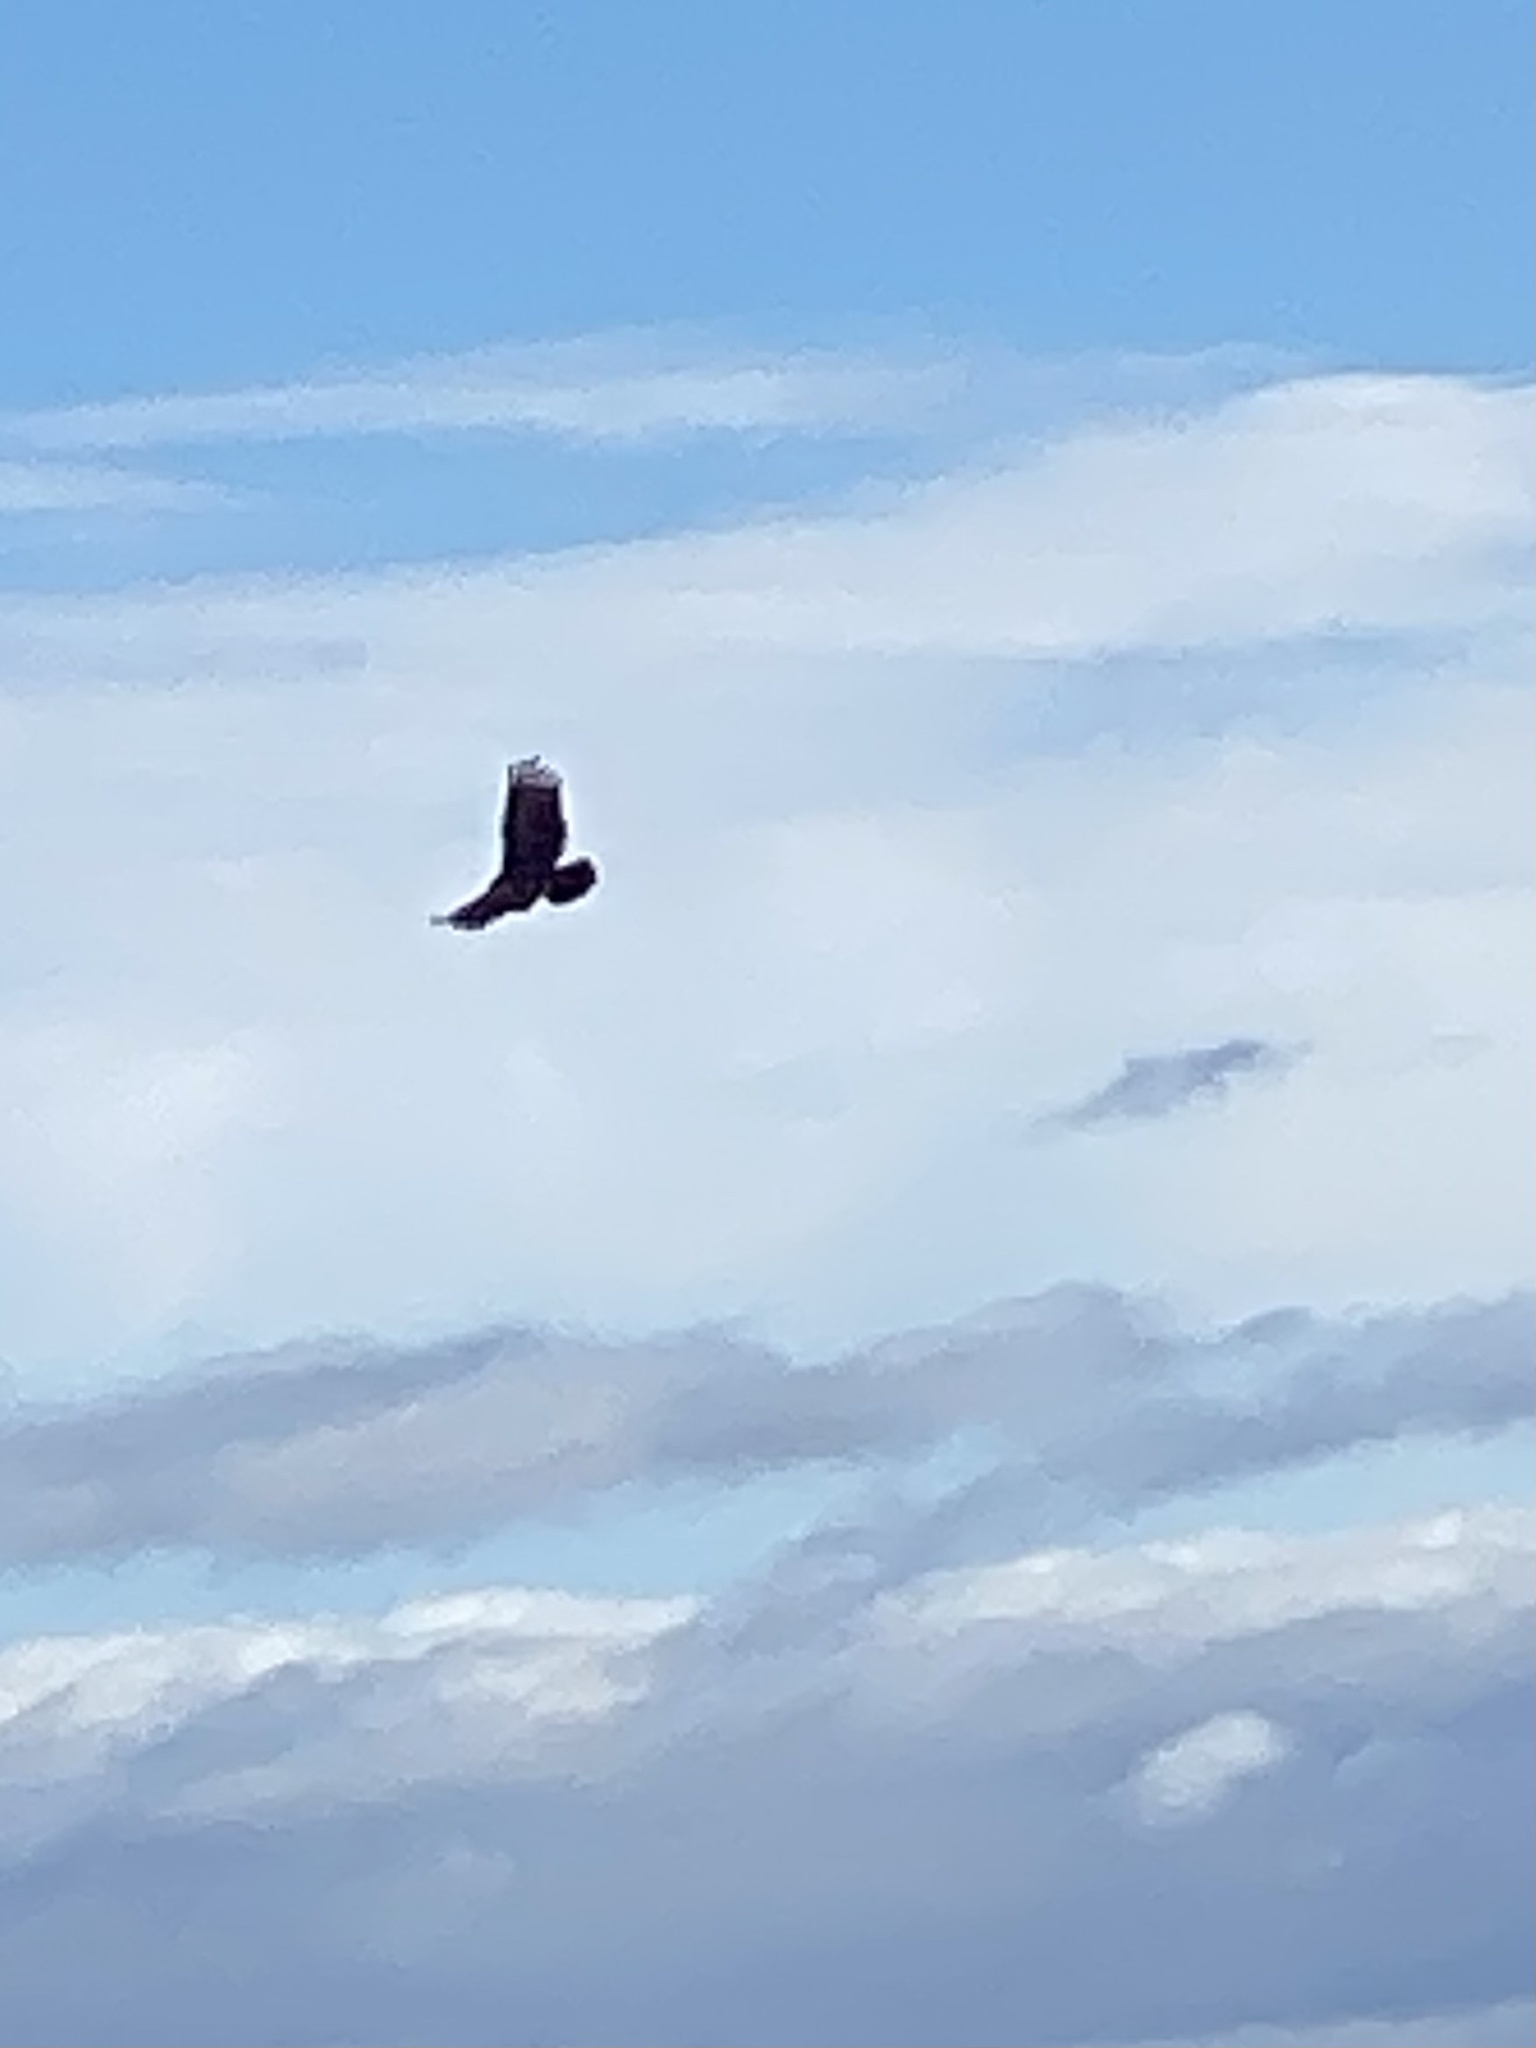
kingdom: Animalia
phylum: Chordata
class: Aves
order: Accipitriformes
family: Cathartidae
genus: Cathartes
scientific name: Cathartes aura
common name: Turkey vulture
